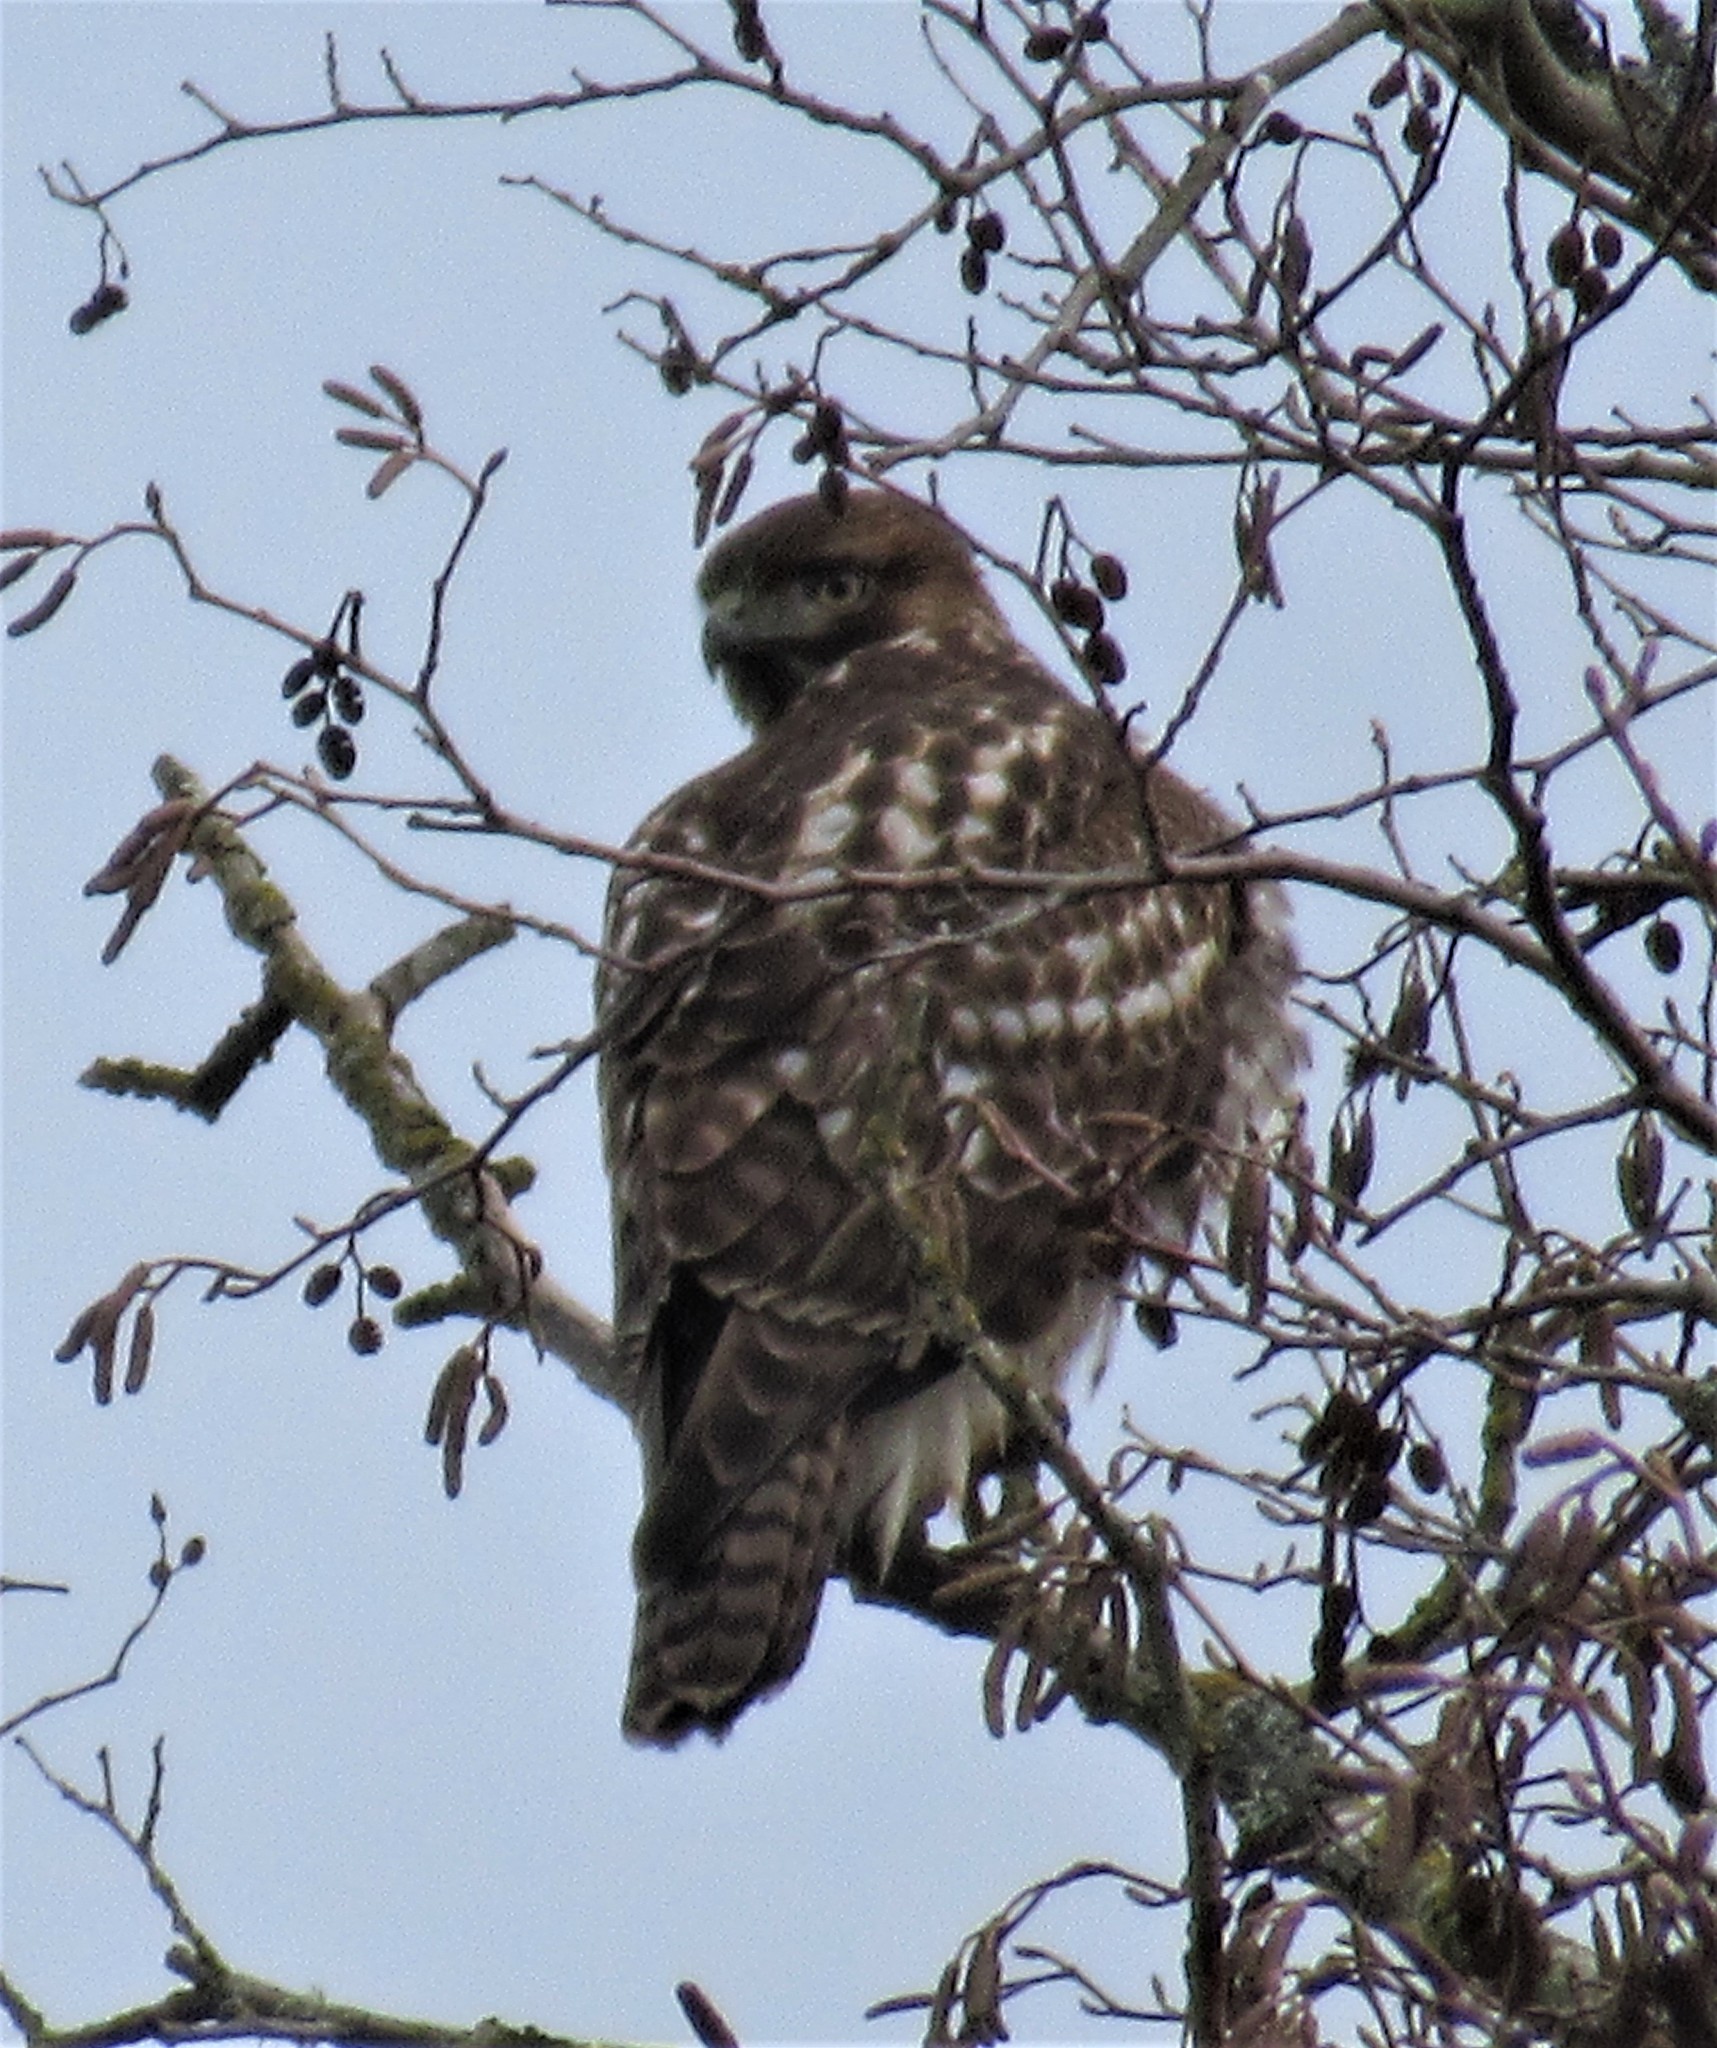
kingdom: Animalia
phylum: Chordata
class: Aves
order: Accipitriformes
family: Accipitridae
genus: Buteo
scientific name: Buteo jamaicensis
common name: Red-tailed hawk
